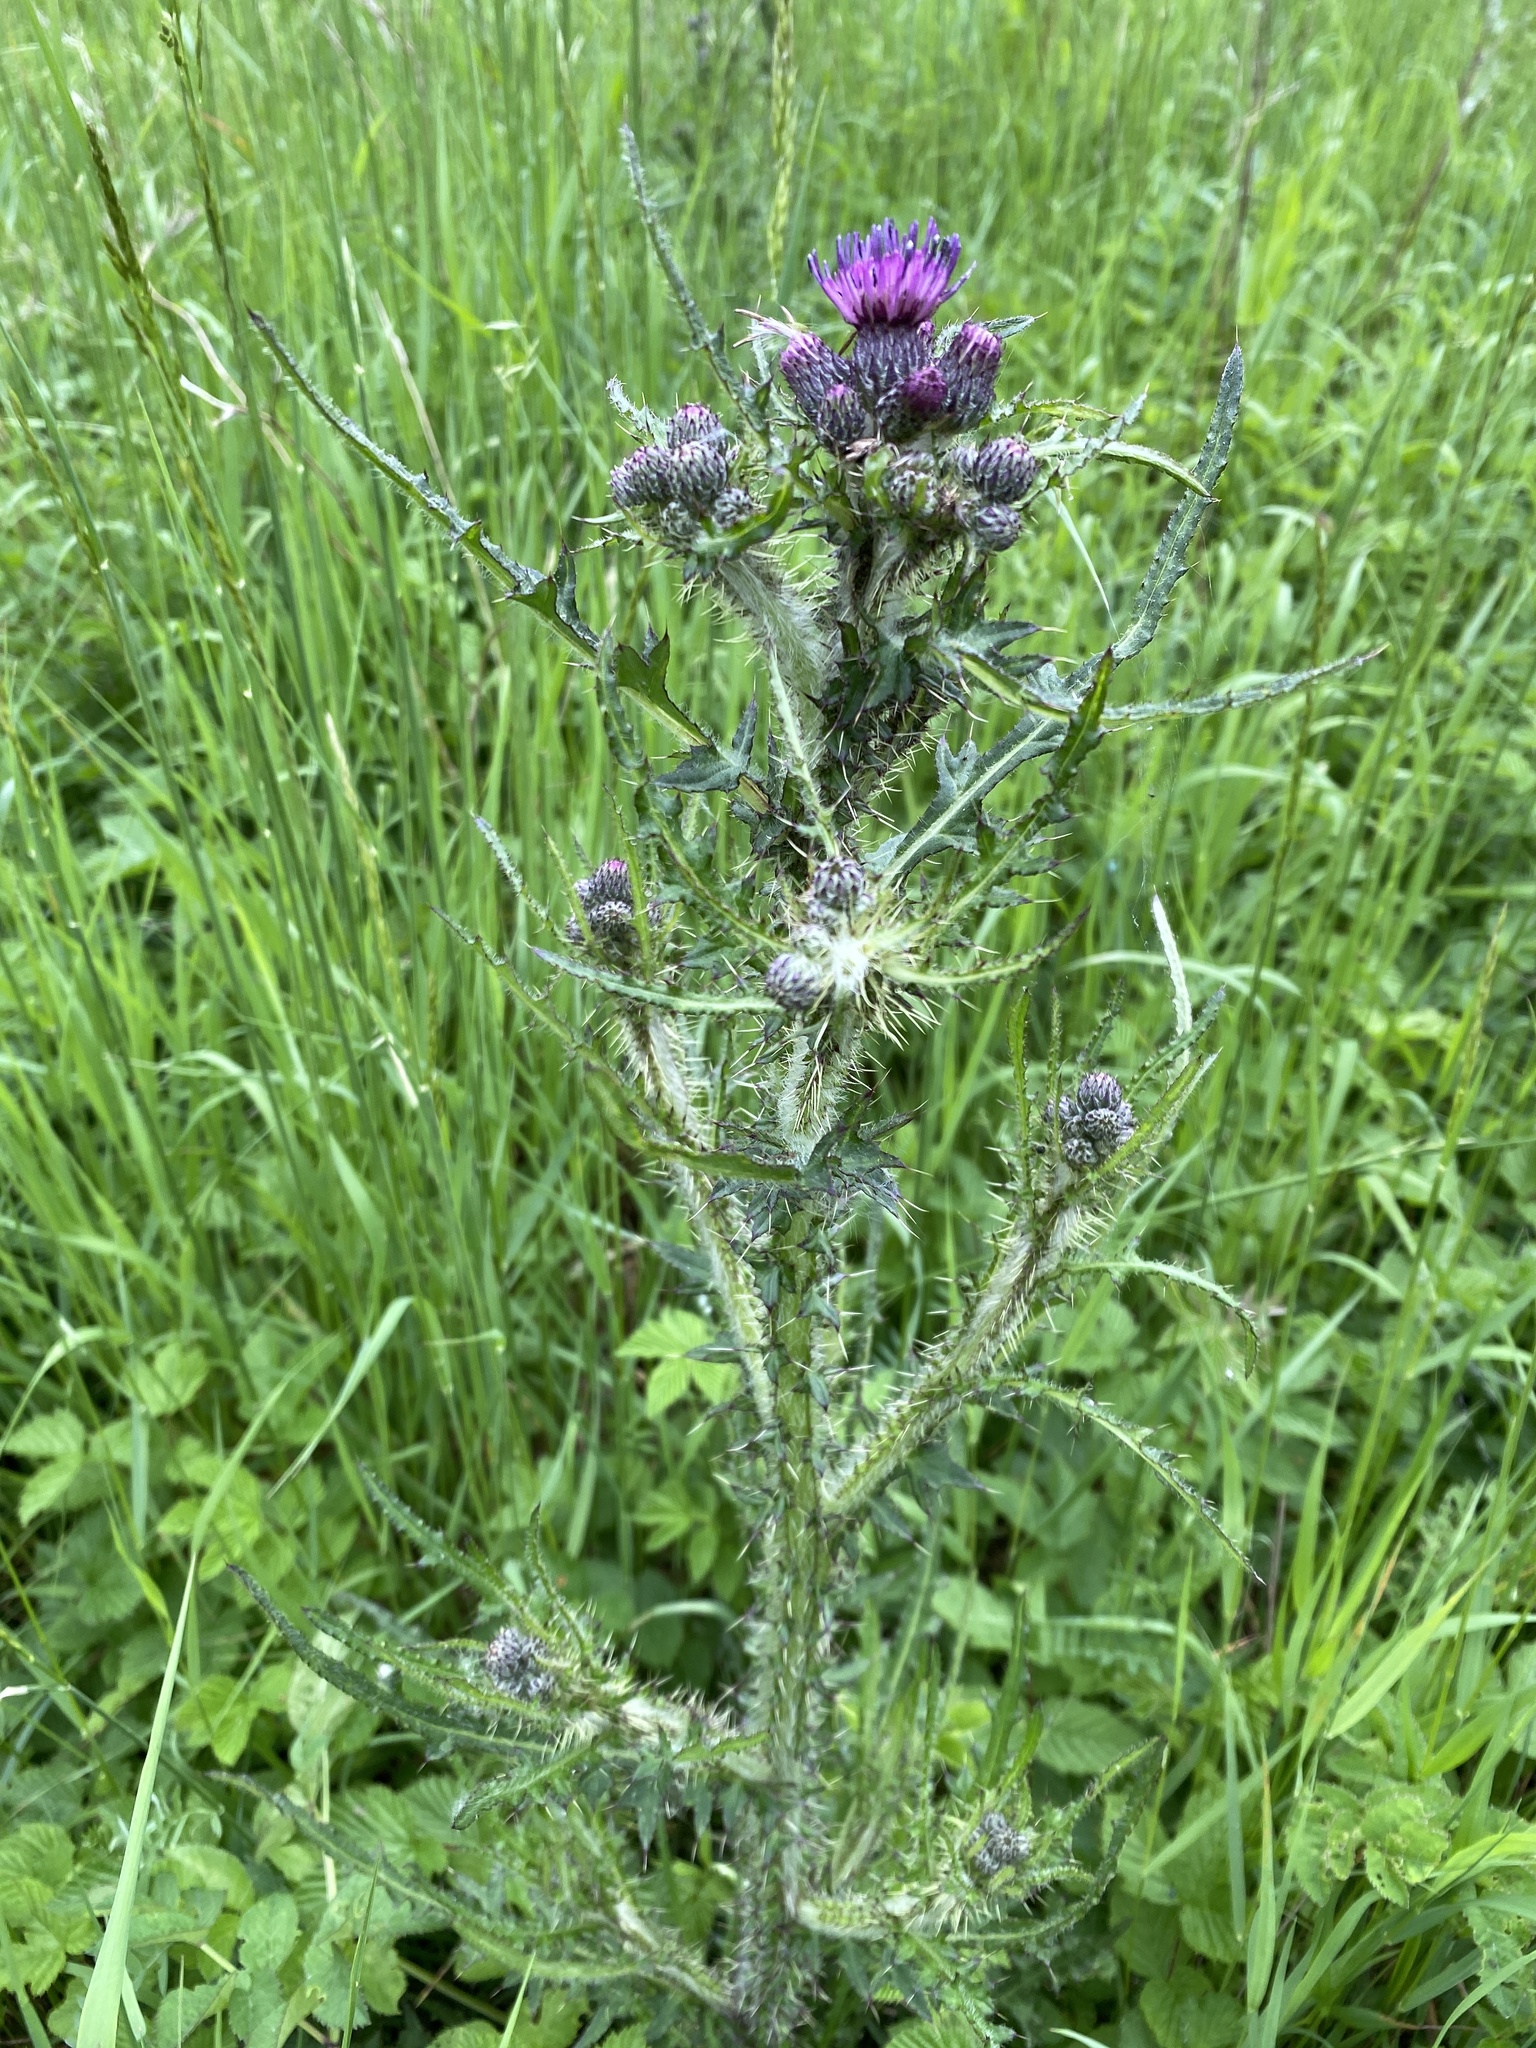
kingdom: Plantae
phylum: Tracheophyta
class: Magnoliopsida
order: Asterales
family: Asteraceae
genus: Cirsium
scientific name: Cirsium palustre
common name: Marsh thistle
